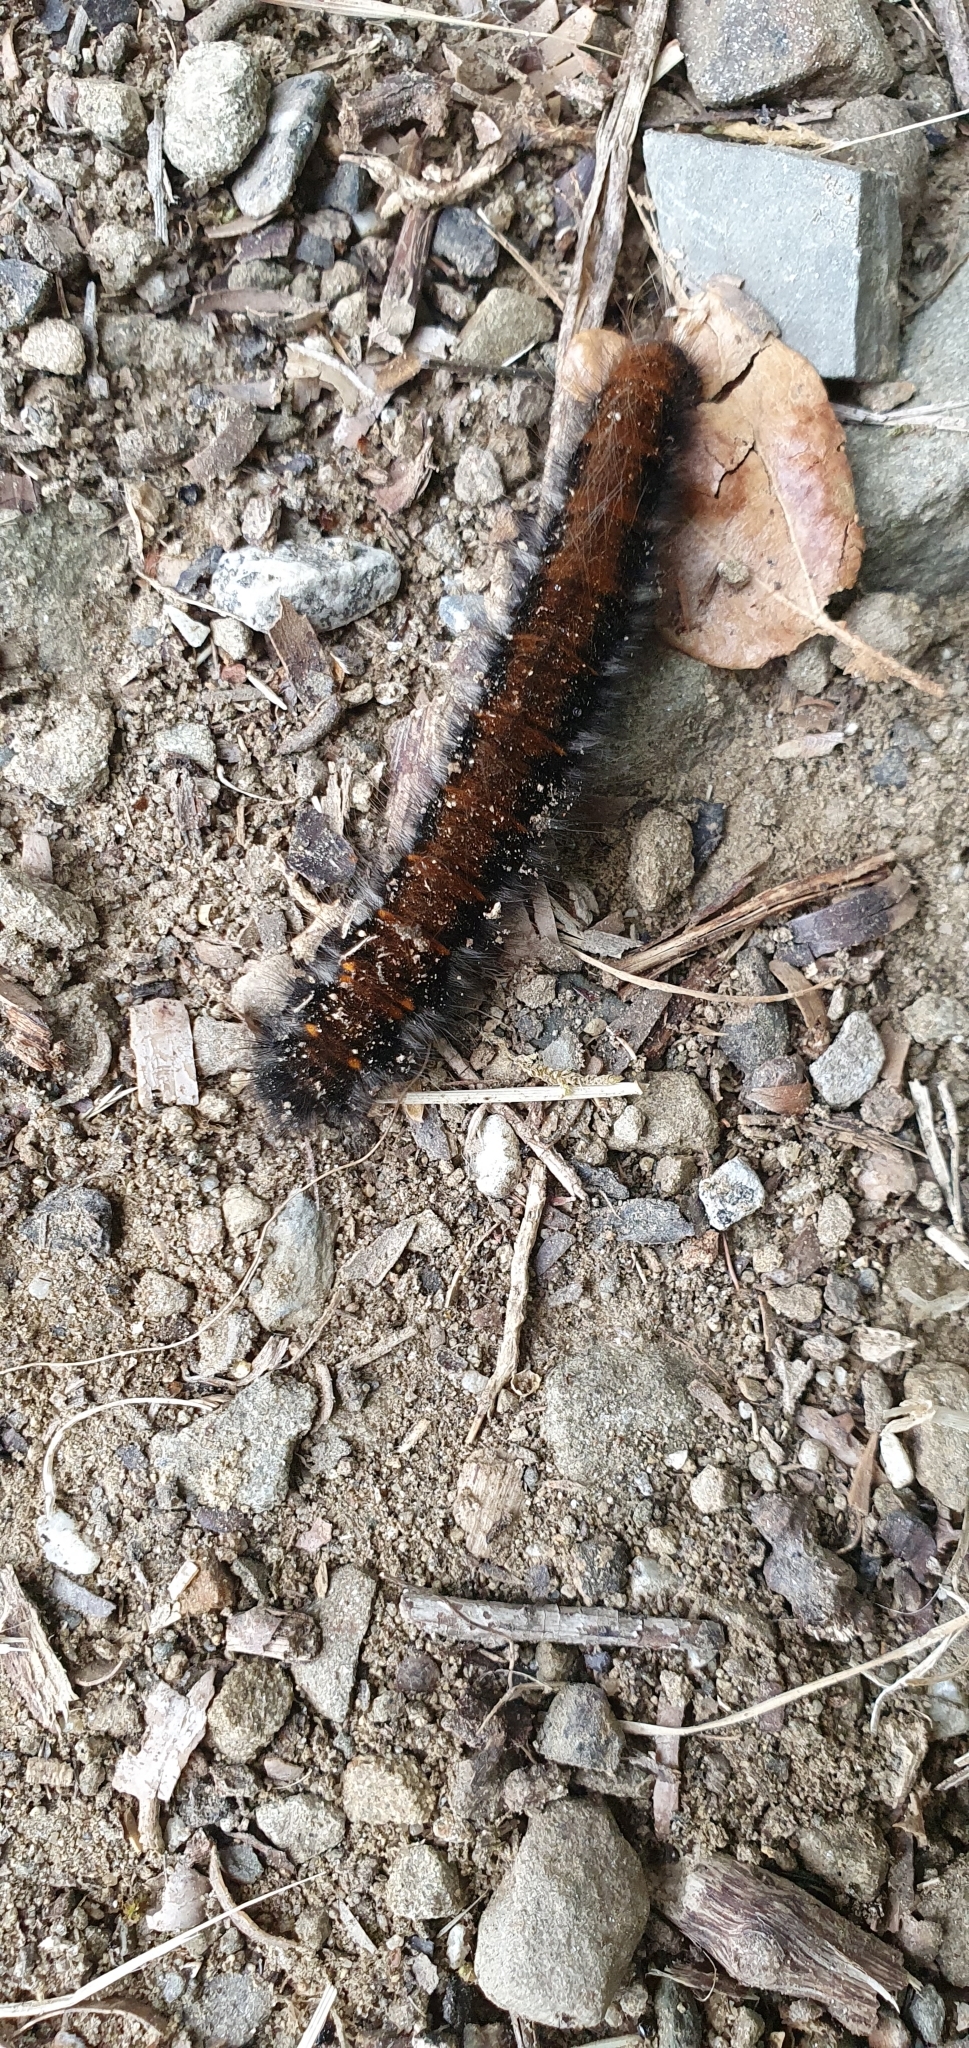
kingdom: Animalia
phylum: Arthropoda
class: Insecta
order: Lepidoptera
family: Lasiocampidae
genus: Macrothylacia
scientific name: Macrothylacia rubi
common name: Fox moth
